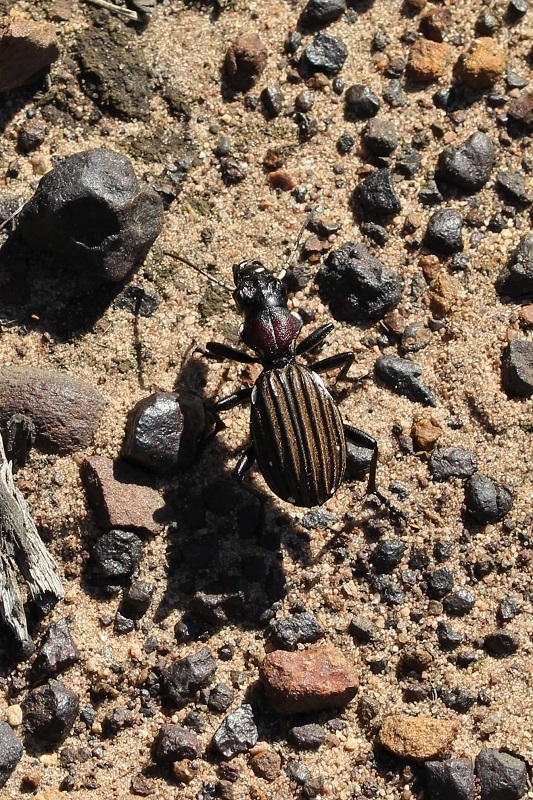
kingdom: Animalia
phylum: Arthropoda
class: Insecta
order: Coleoptera
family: Carabidae
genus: Anthia
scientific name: Anthia decemguttata
